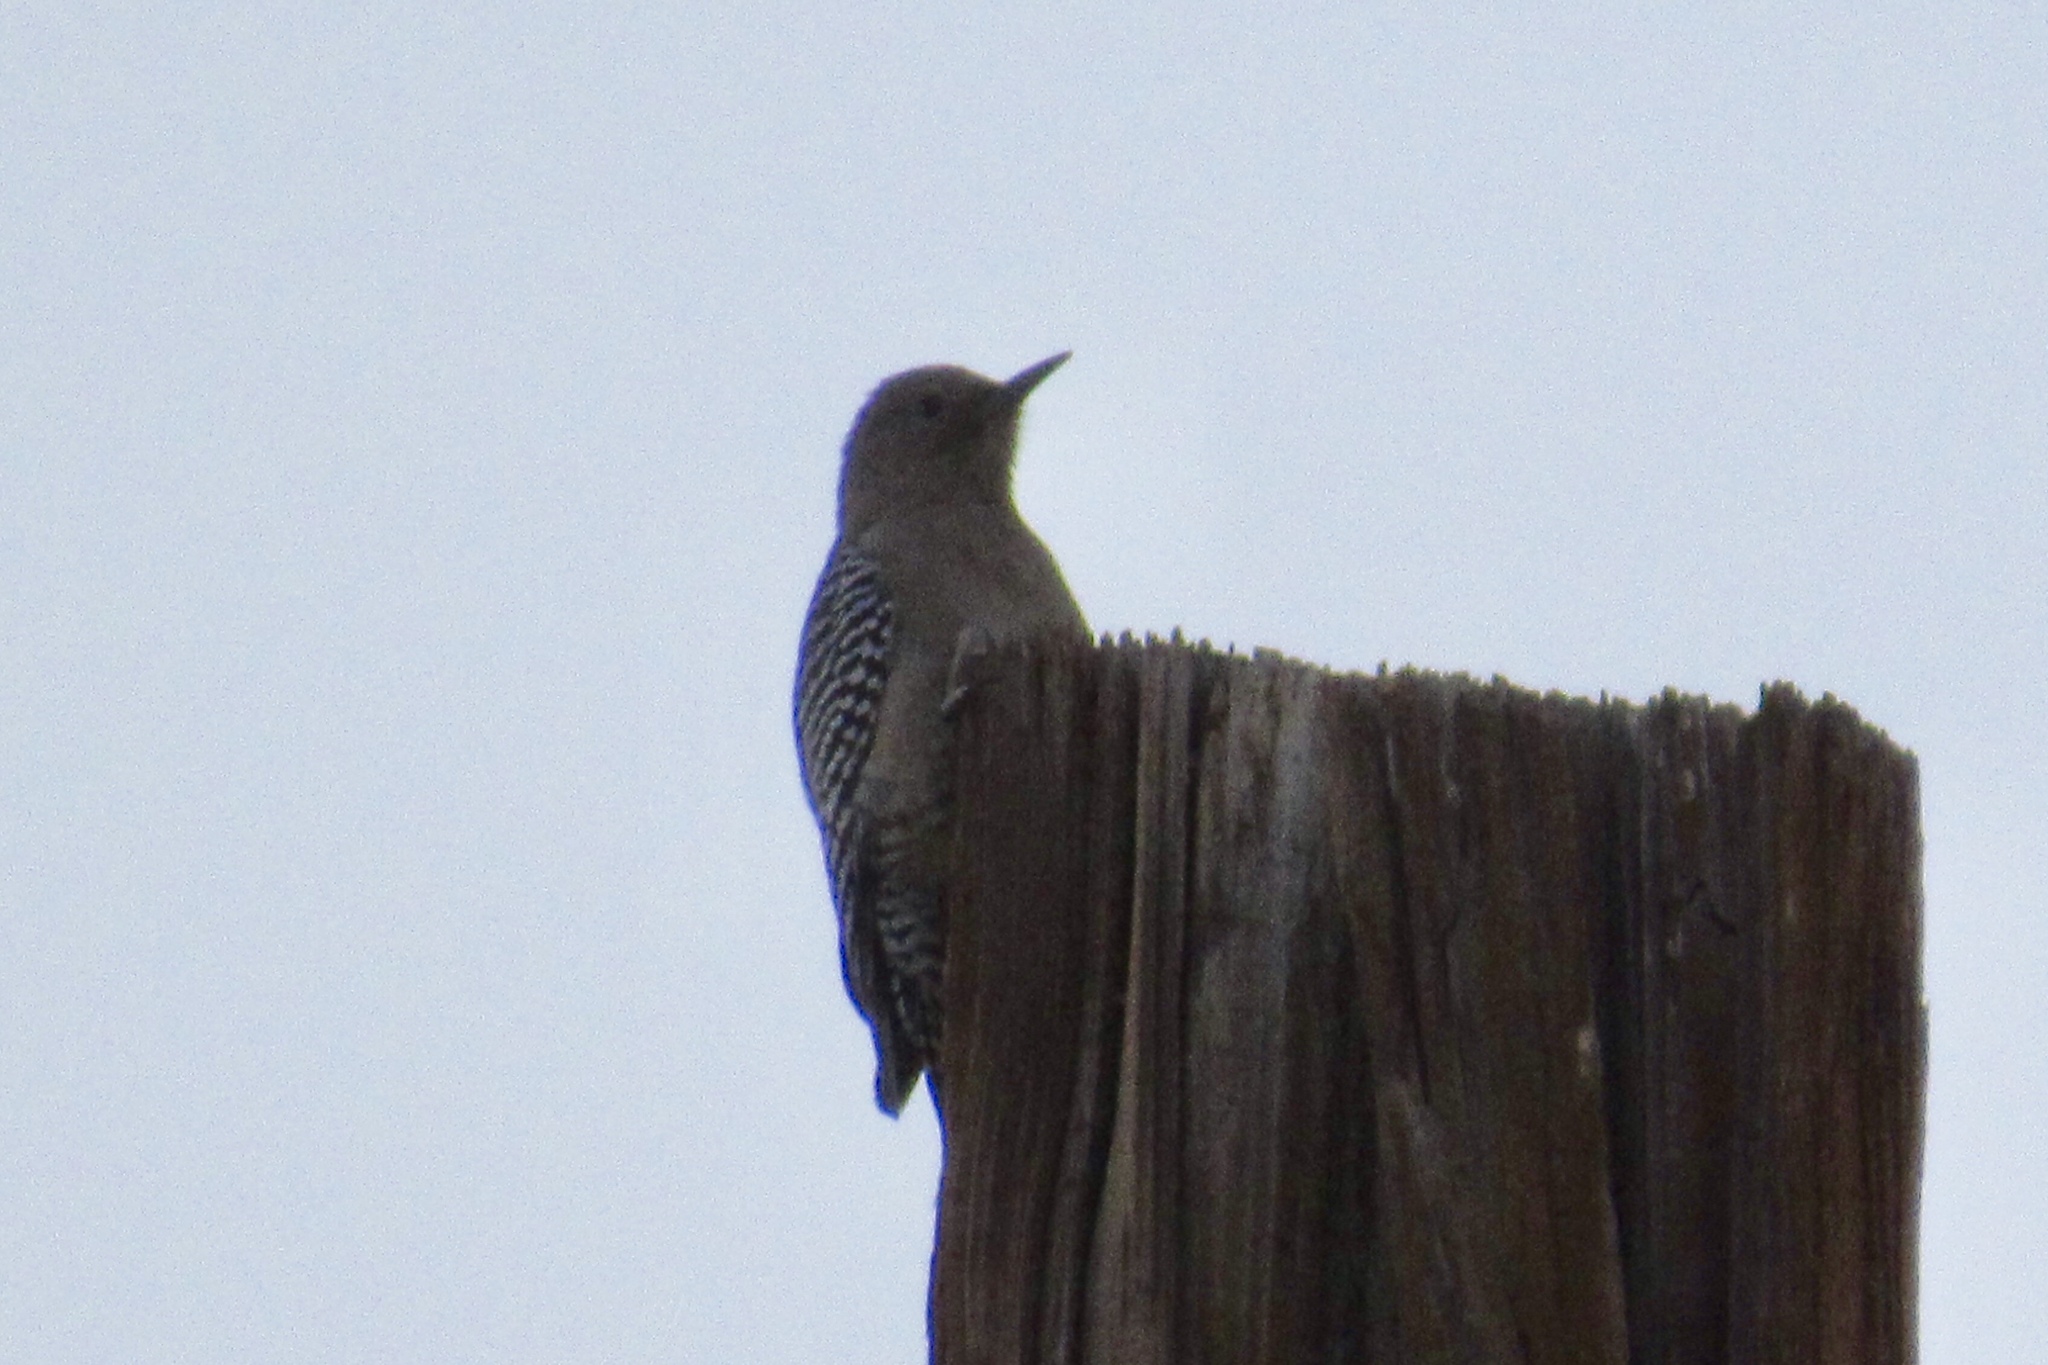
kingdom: Animalia
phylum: Chordata
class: Aves
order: Piciformes
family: Picidae
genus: Melanerpes
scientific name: Melanerpes uropygialis
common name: Gila woodpecker
